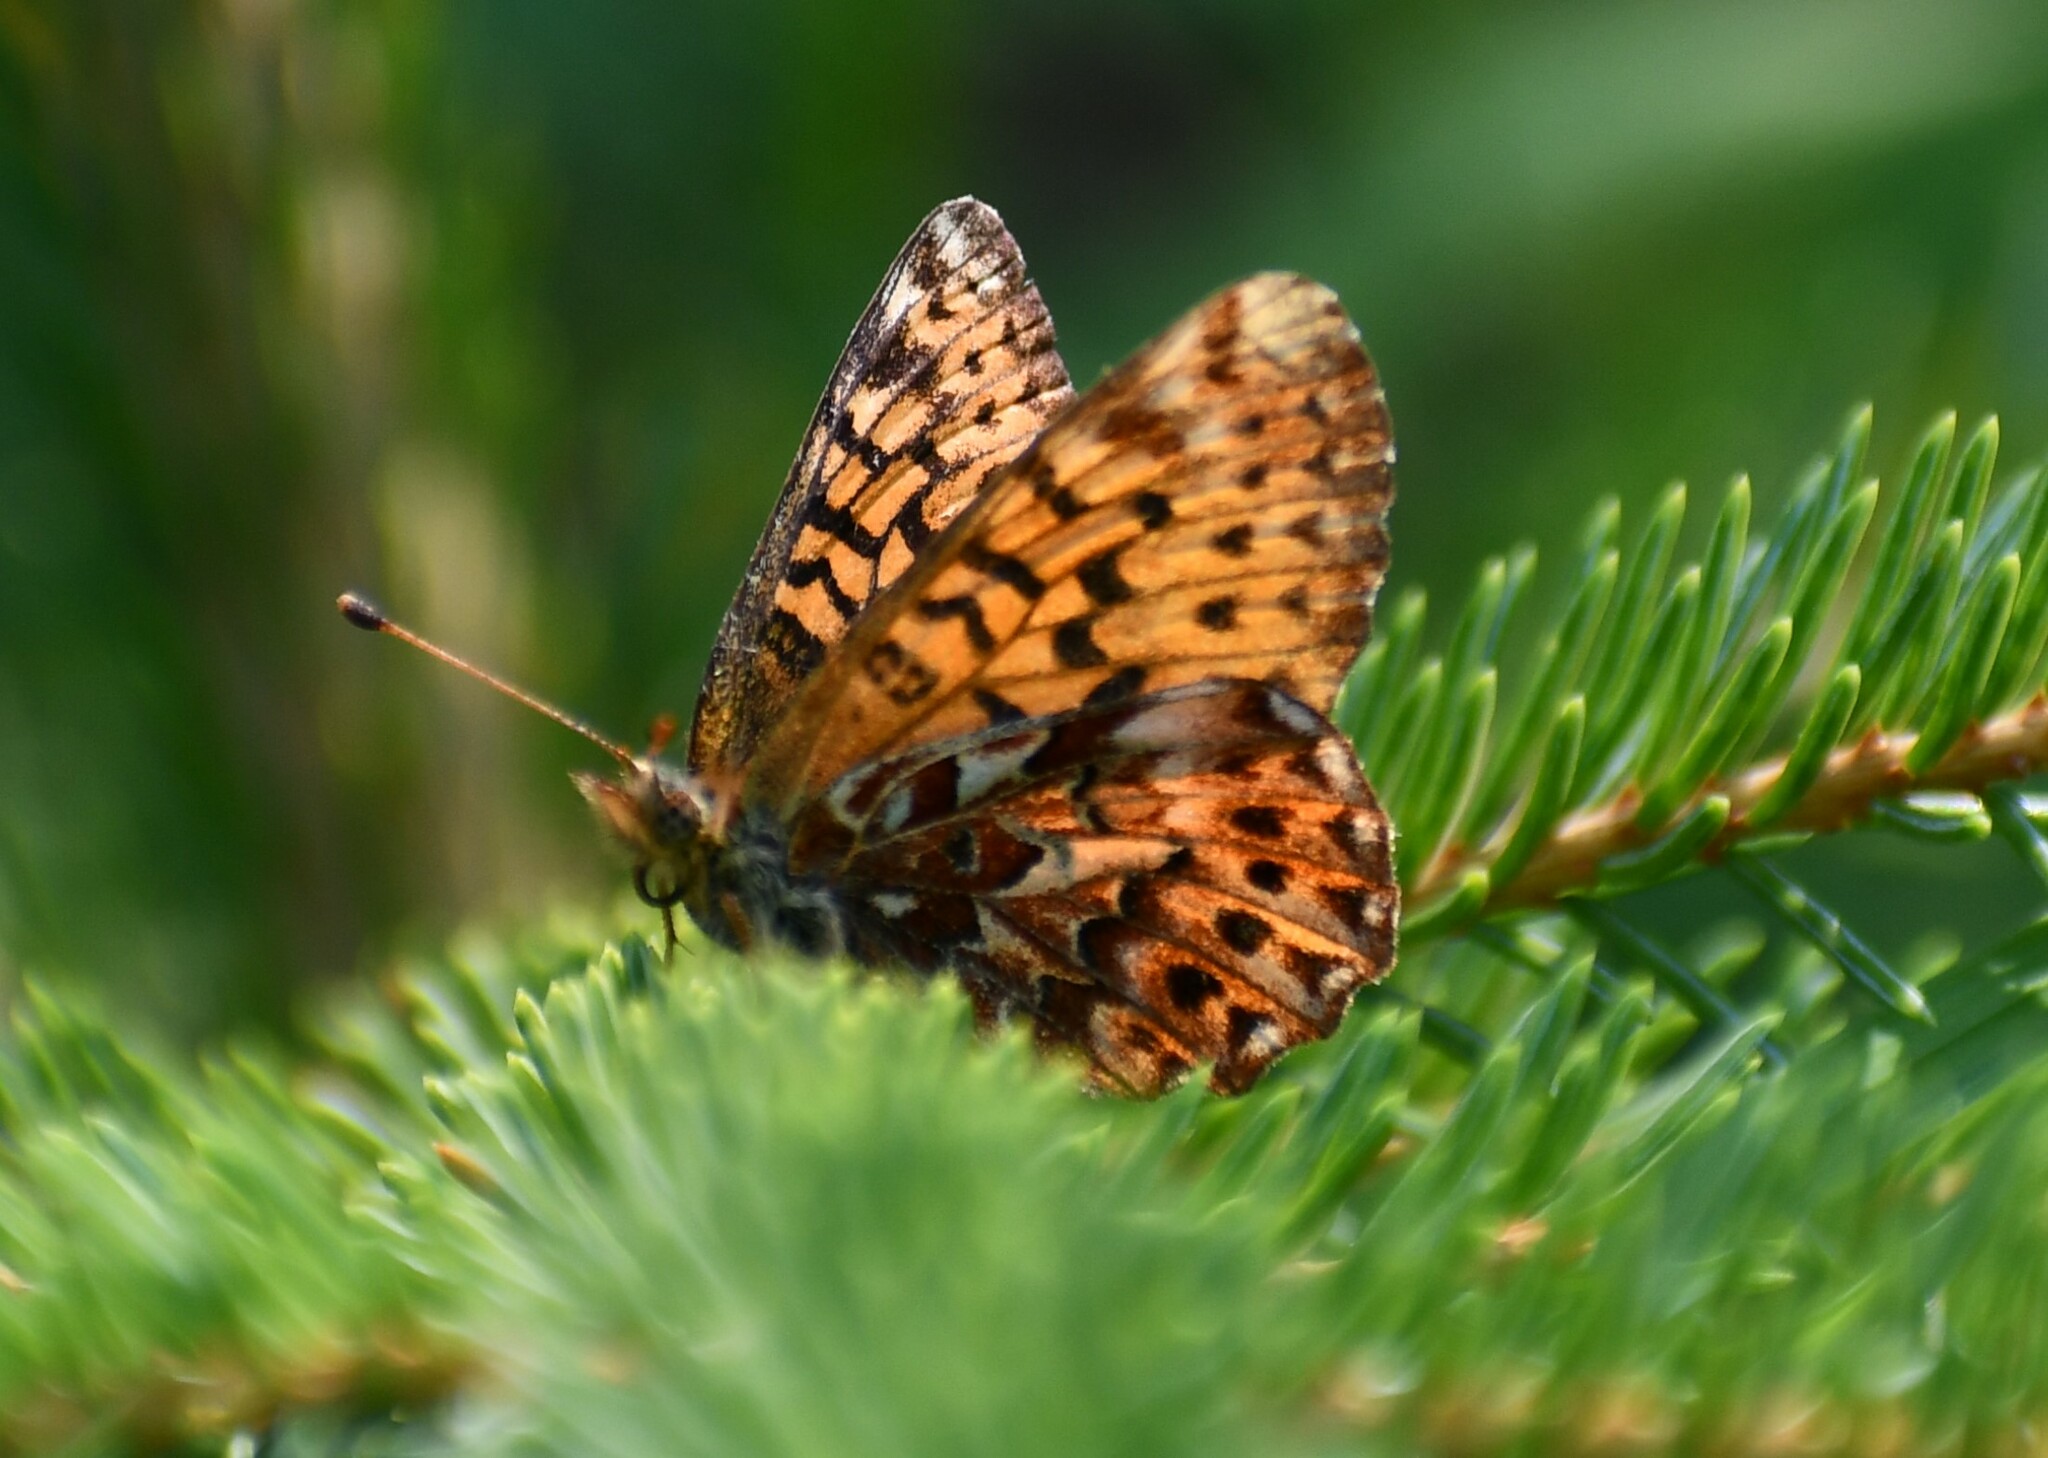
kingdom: Animalia
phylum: Arthropoda
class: Insecta
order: Lepidoptera
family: Nymphalidae
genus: Clossiana
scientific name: Clossiana chariclea
